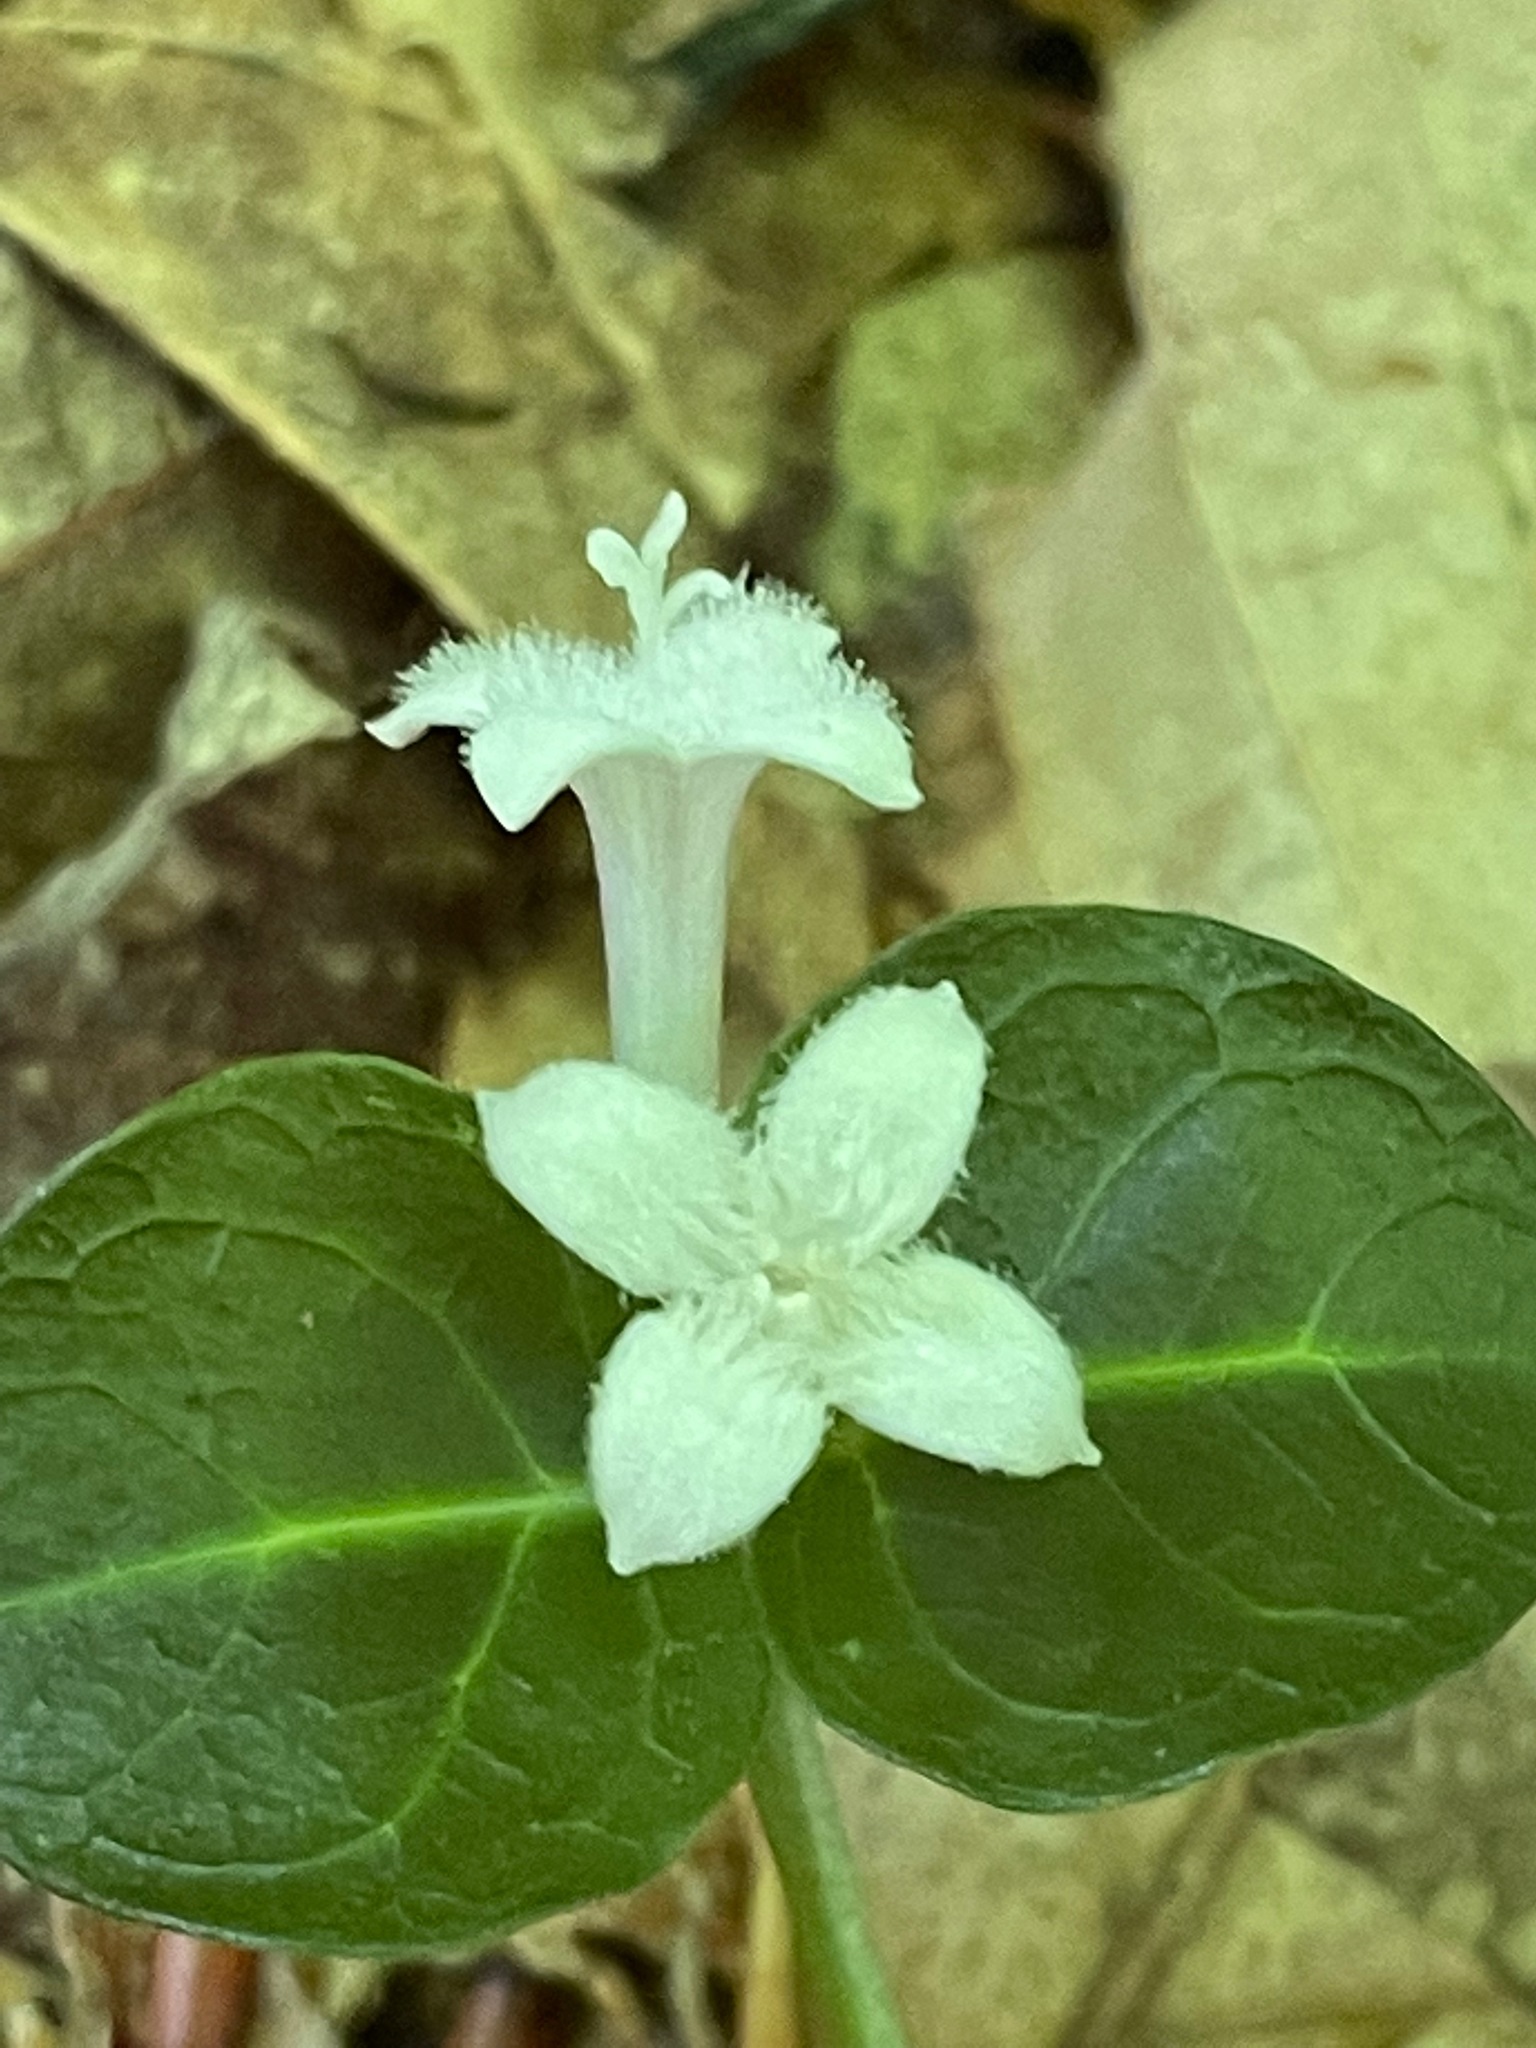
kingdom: Plantae
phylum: Tracheophyta
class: Magnoliopsida
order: Gentianales
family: Rubiaceae
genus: Mitchella
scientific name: Mitchella repens
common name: Partridge-berry
